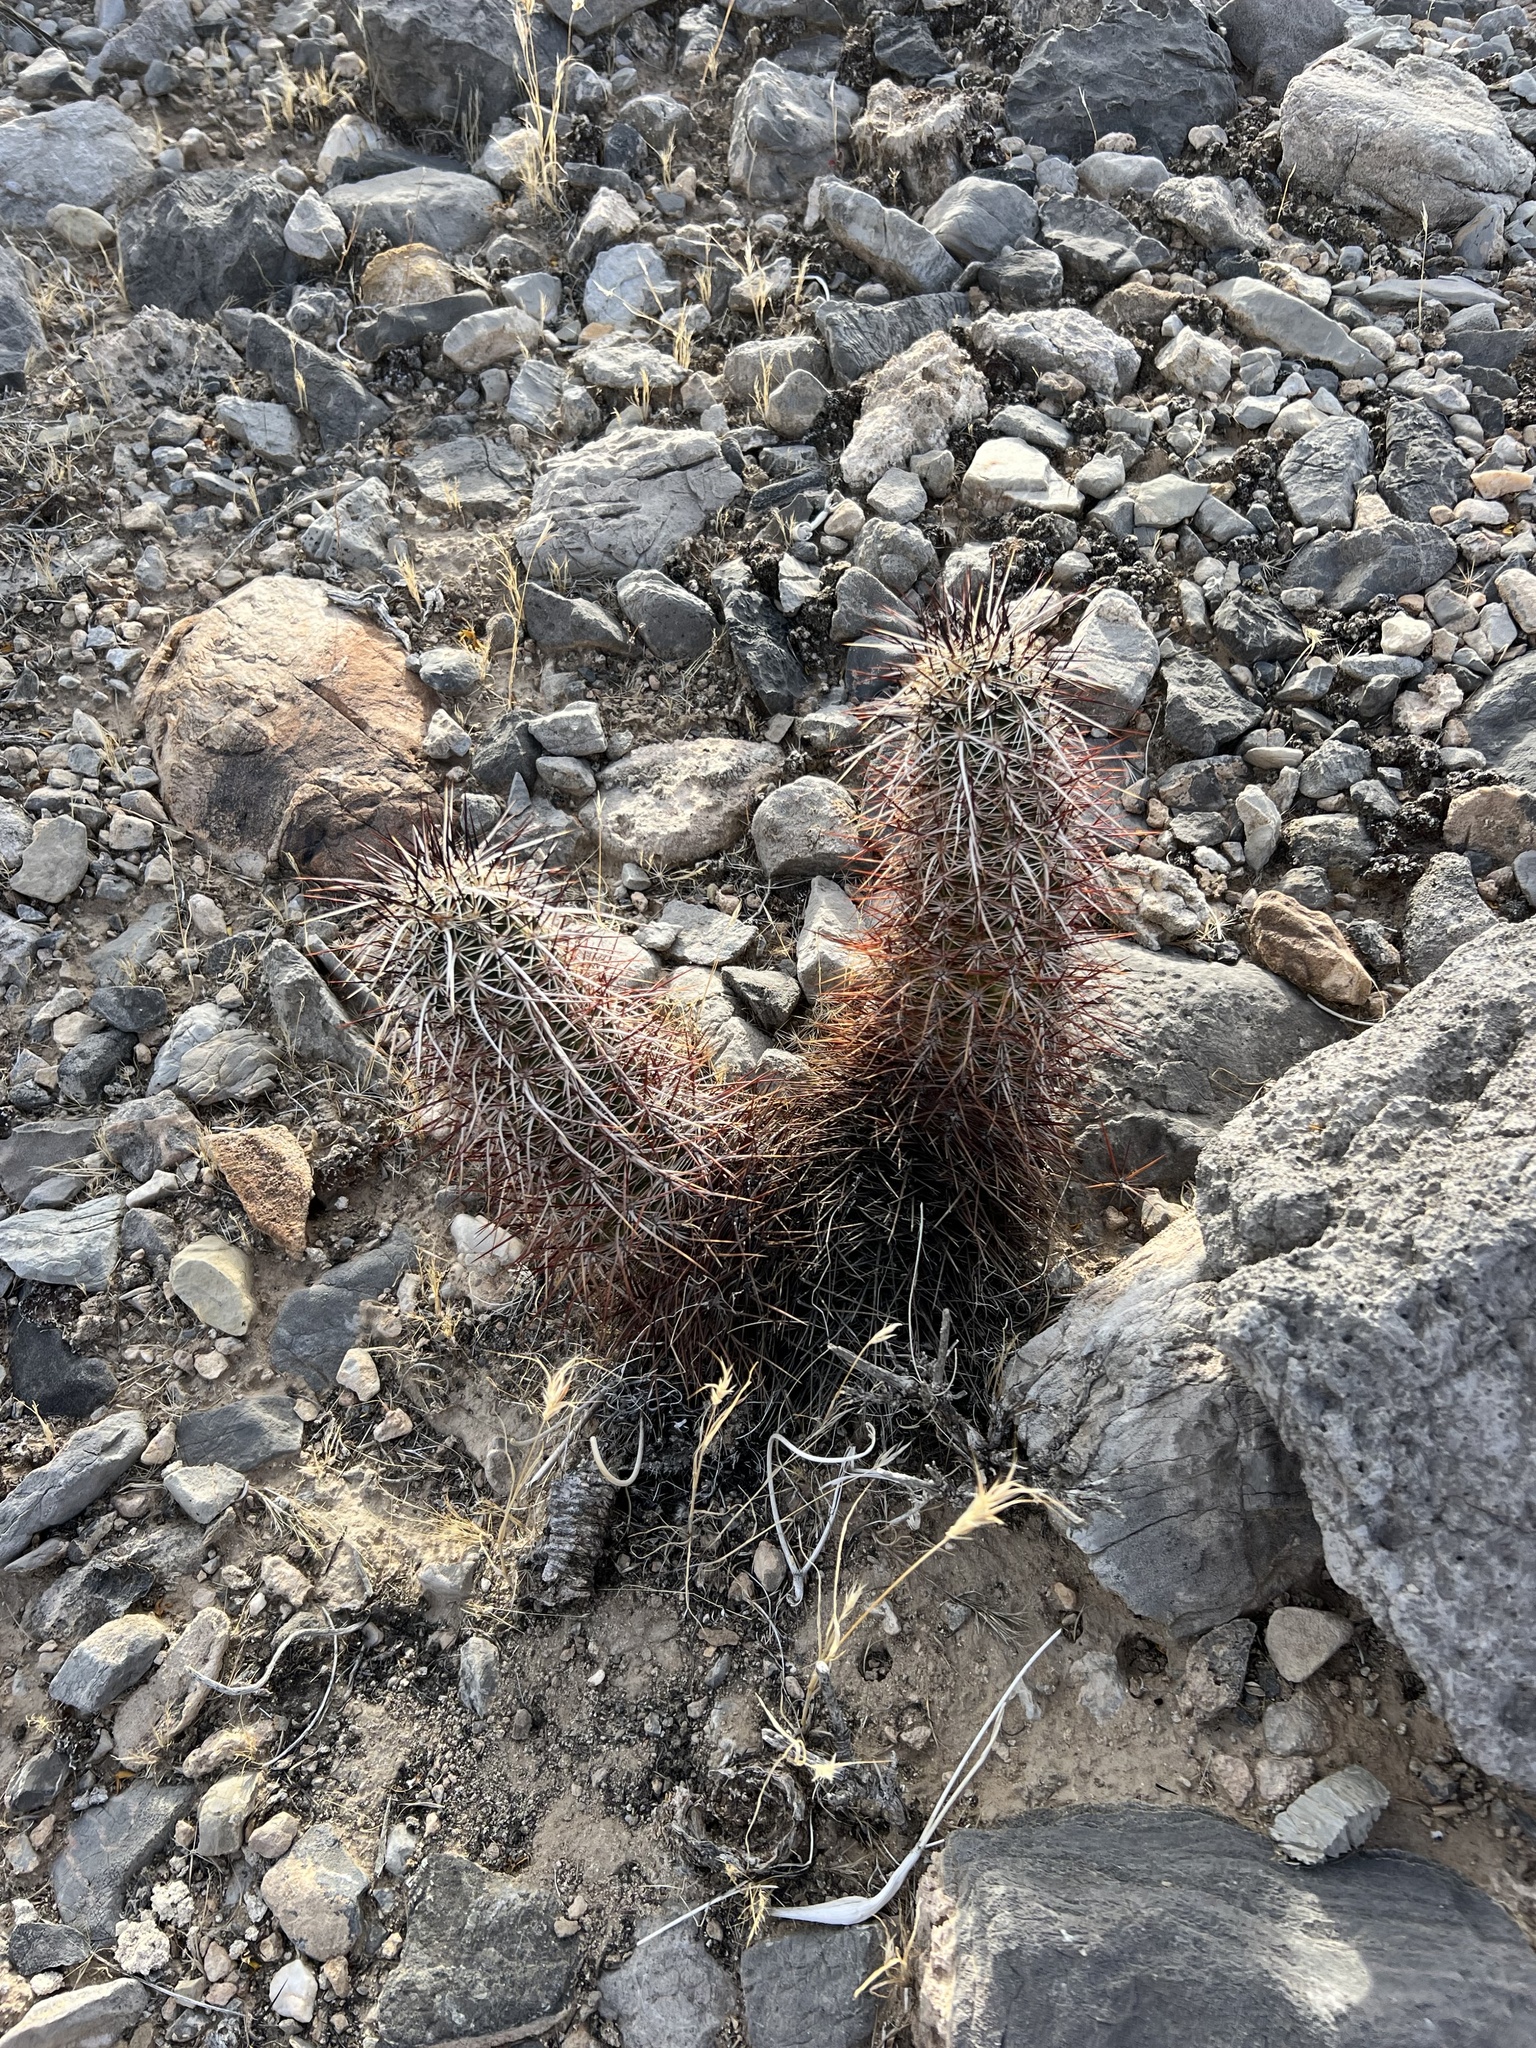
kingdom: Plantae
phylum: Tracheophyta
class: Magnoliopsida
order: Caryophyllales
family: Cactaceae
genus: Echinocereus
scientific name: Echinocereus engelmannii
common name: Engelmann's hedgehog cactus
